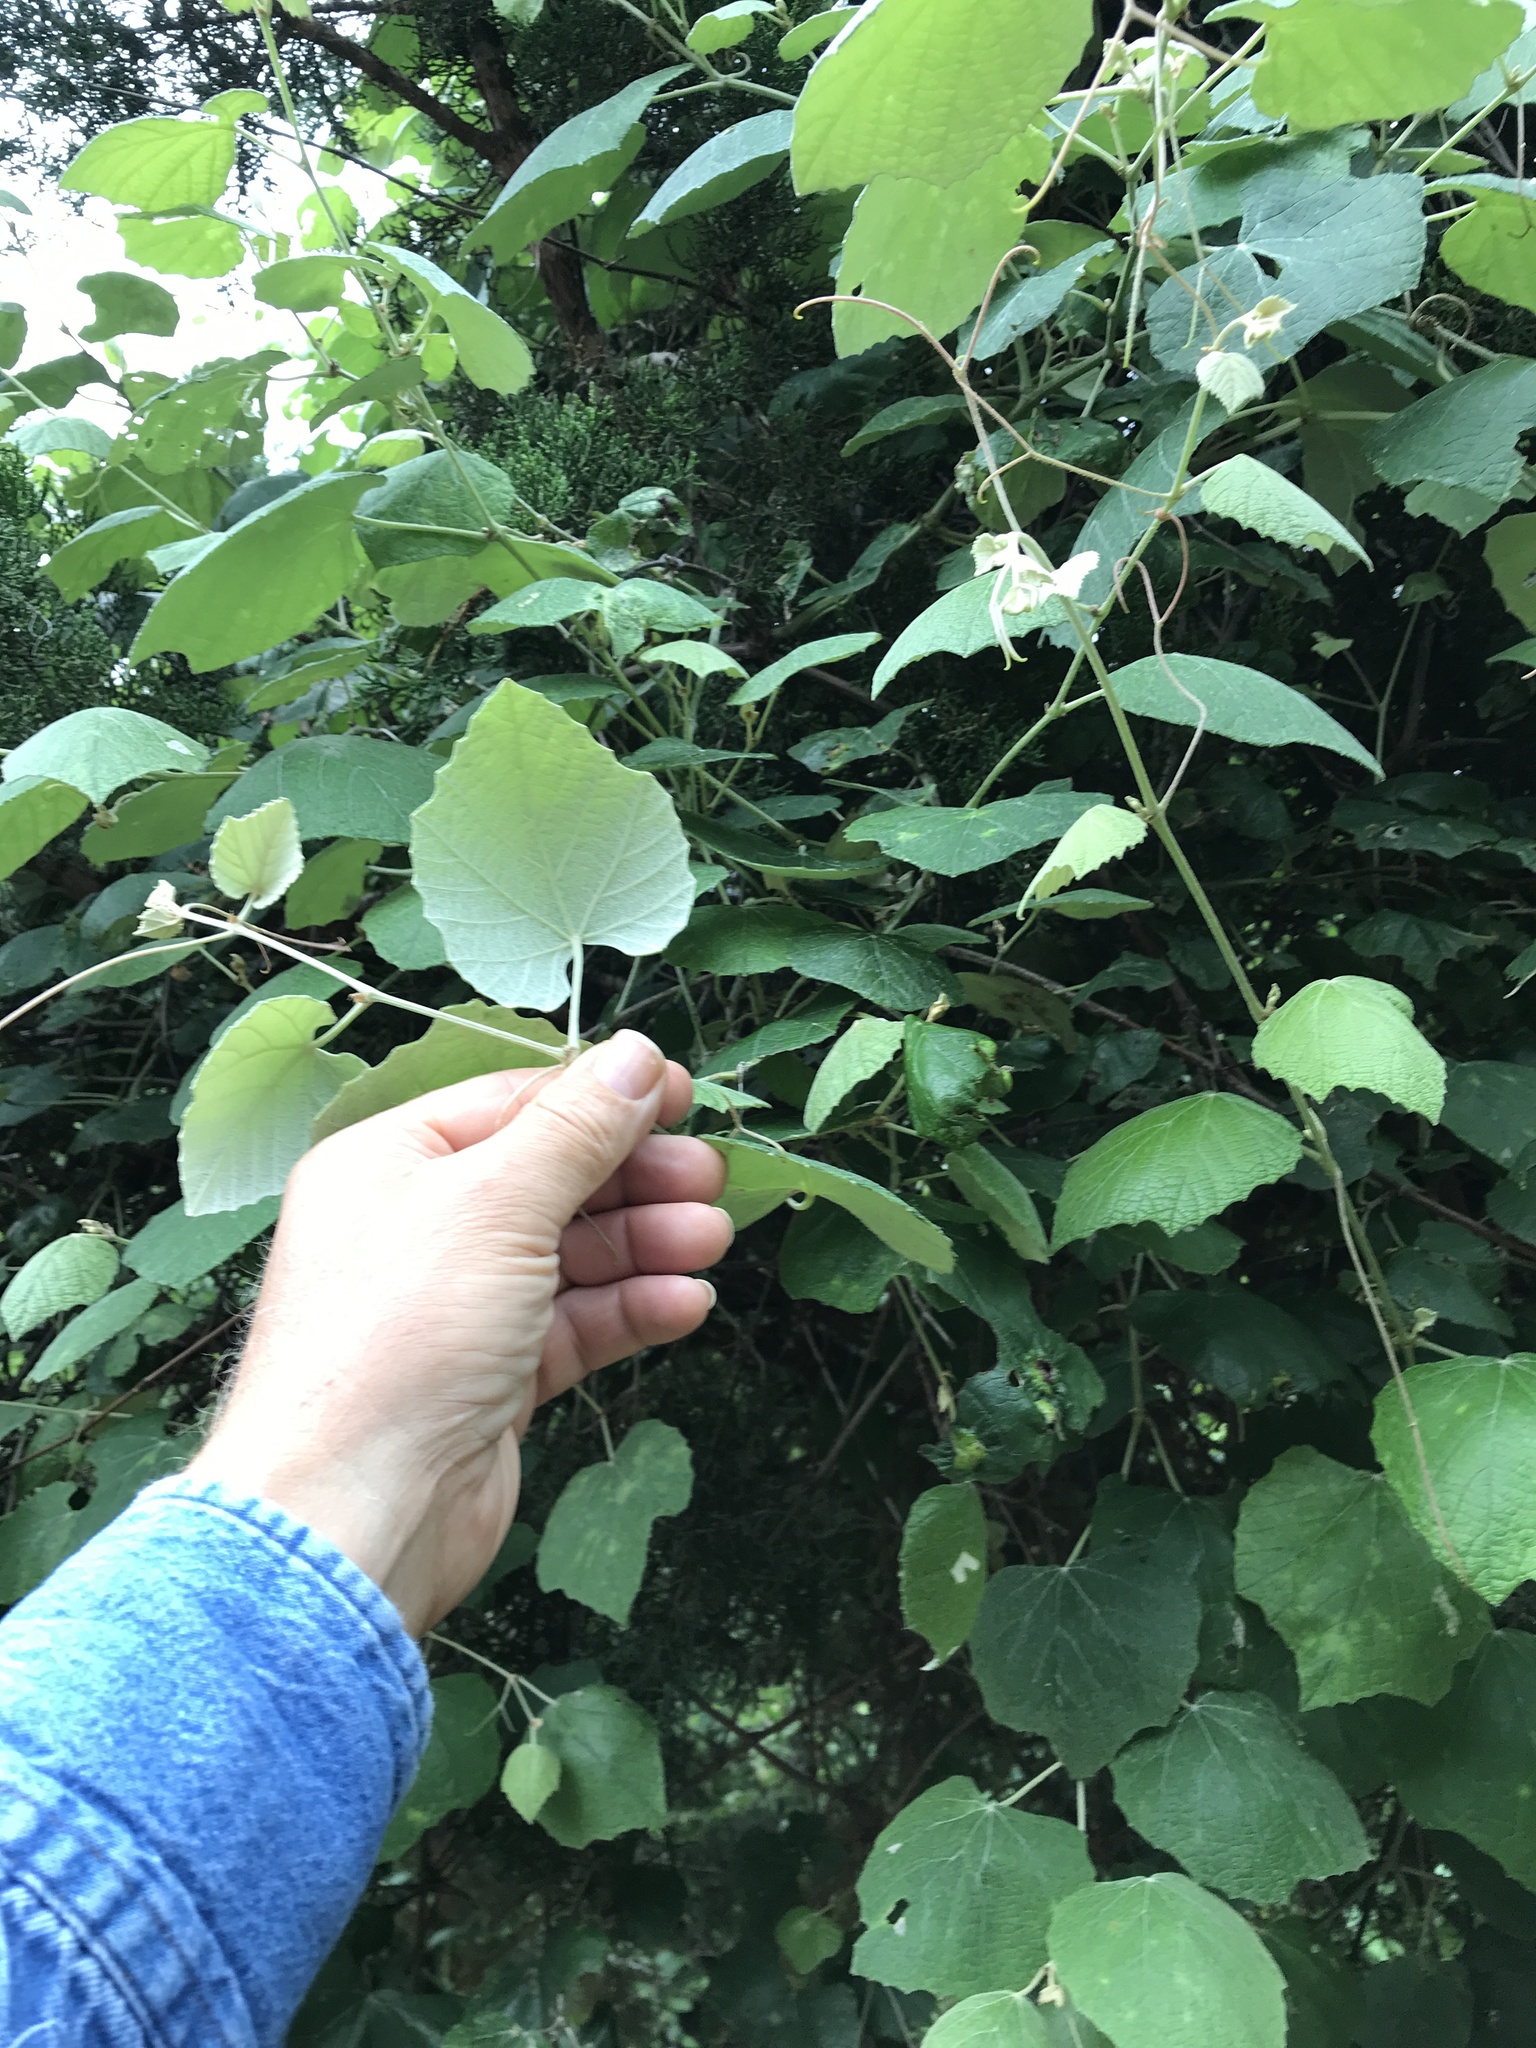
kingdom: Plantae
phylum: Tracheophyta
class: Magnoliopsida
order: Vitales
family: Vitaceae
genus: Vitis
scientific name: Vitis mustangensis
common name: Mustang grape
